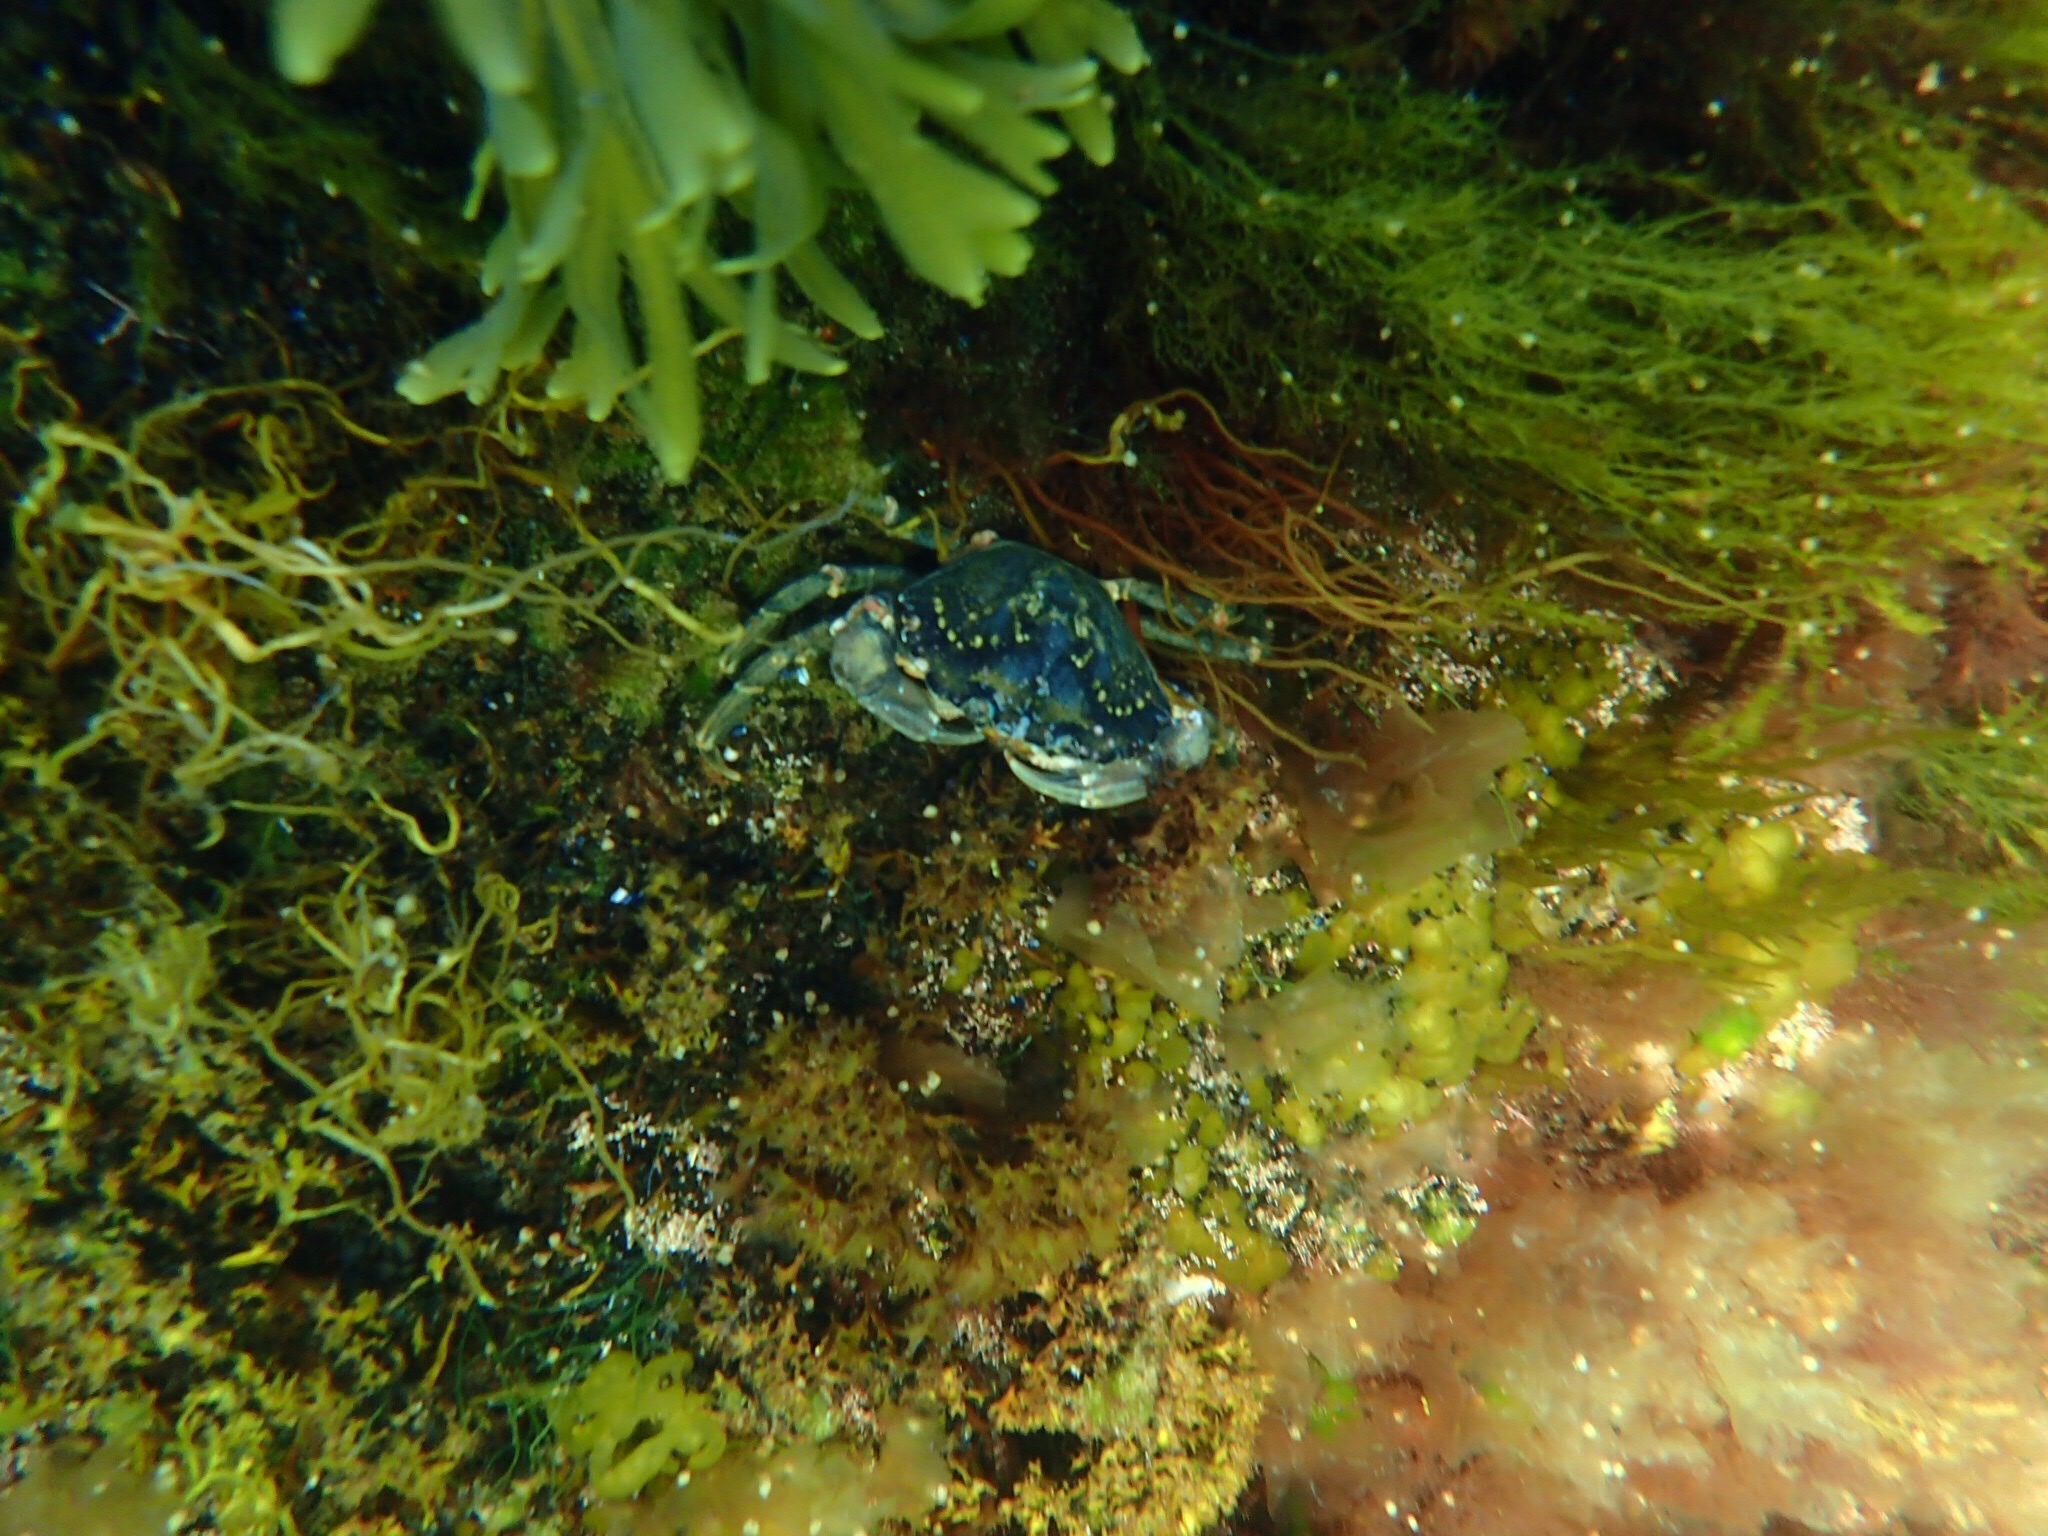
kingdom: Animalia
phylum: Arthropoda
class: Malacostraca
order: Decapoda
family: Carcinidae
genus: Carcinus
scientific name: Carcinus maenas
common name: European green crab
